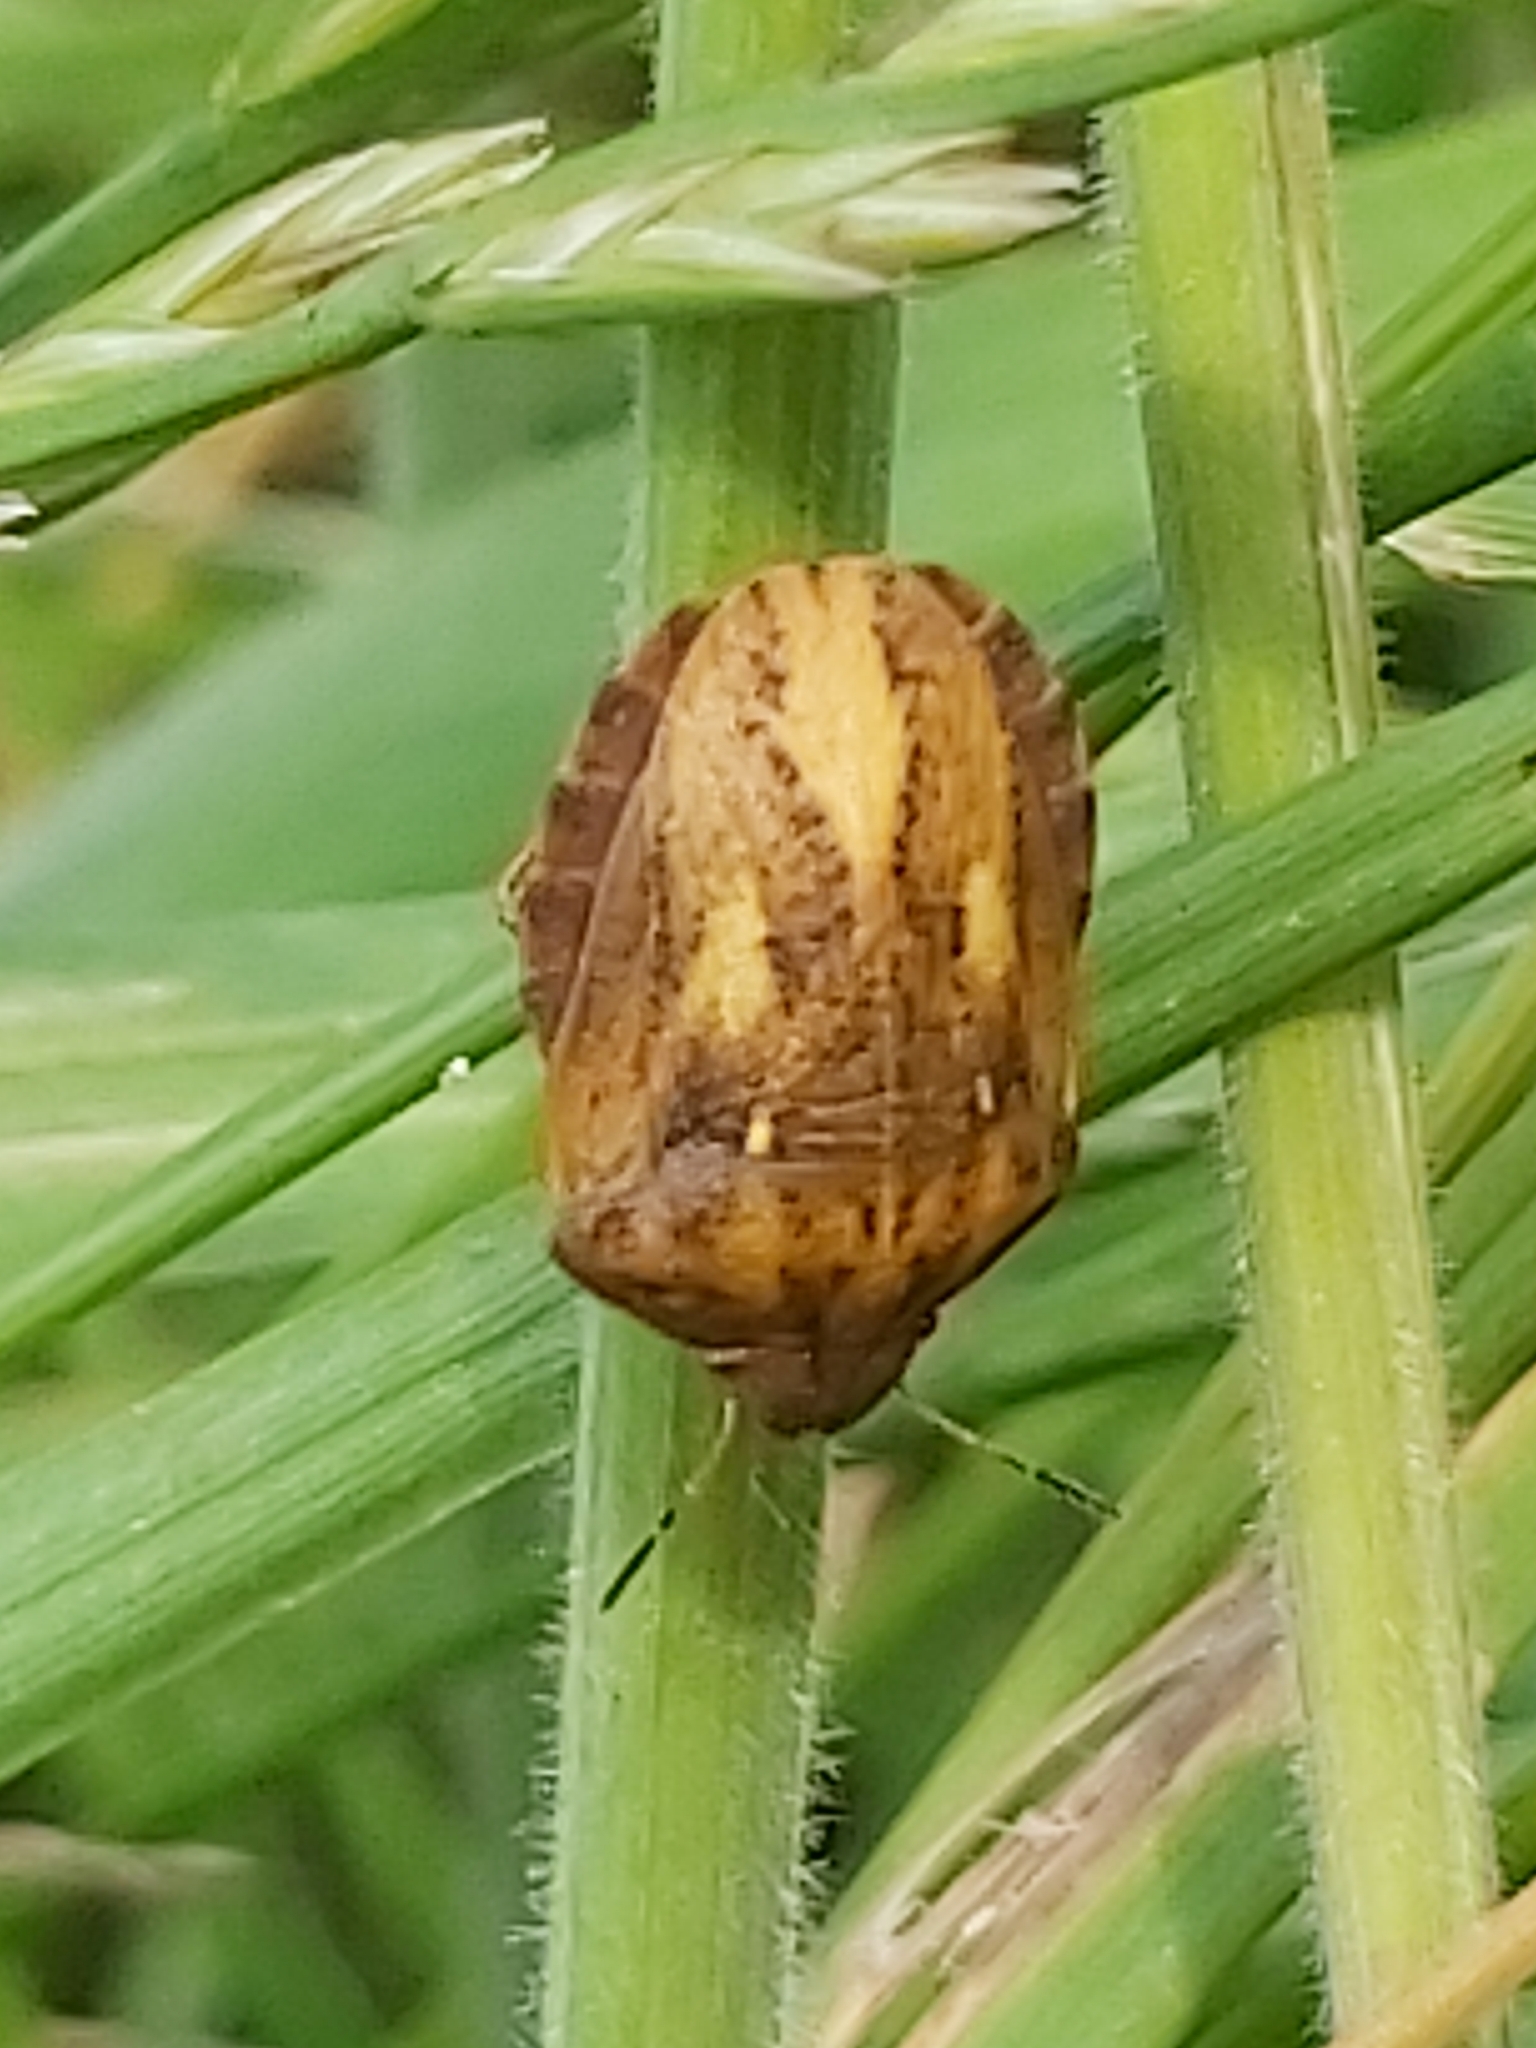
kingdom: Animalia
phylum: Arthropoda
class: Insecta
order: Hemiptera
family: Scutelleridae
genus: Eurygaster
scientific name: Eurygaster testudinaria
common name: Tortoise bug
